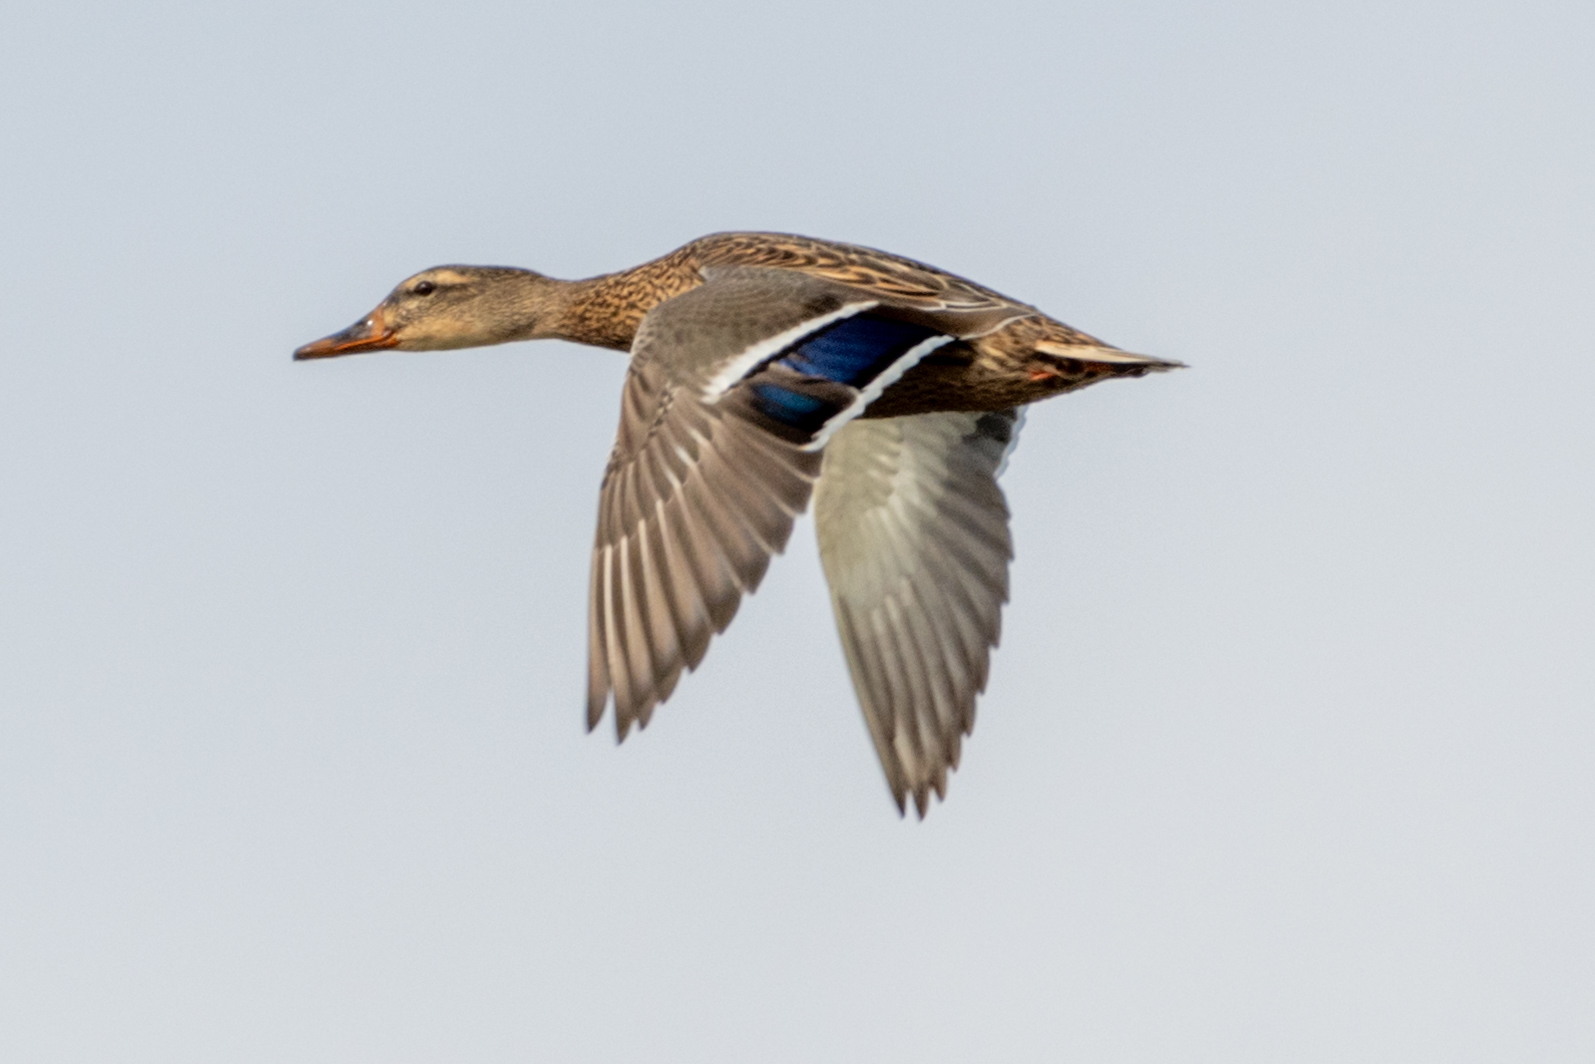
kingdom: Animalia
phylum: Chordata
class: Aves
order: Anseriformes
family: Anatidae
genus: Anas
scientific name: Anas platyrhynchos
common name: Mallard
